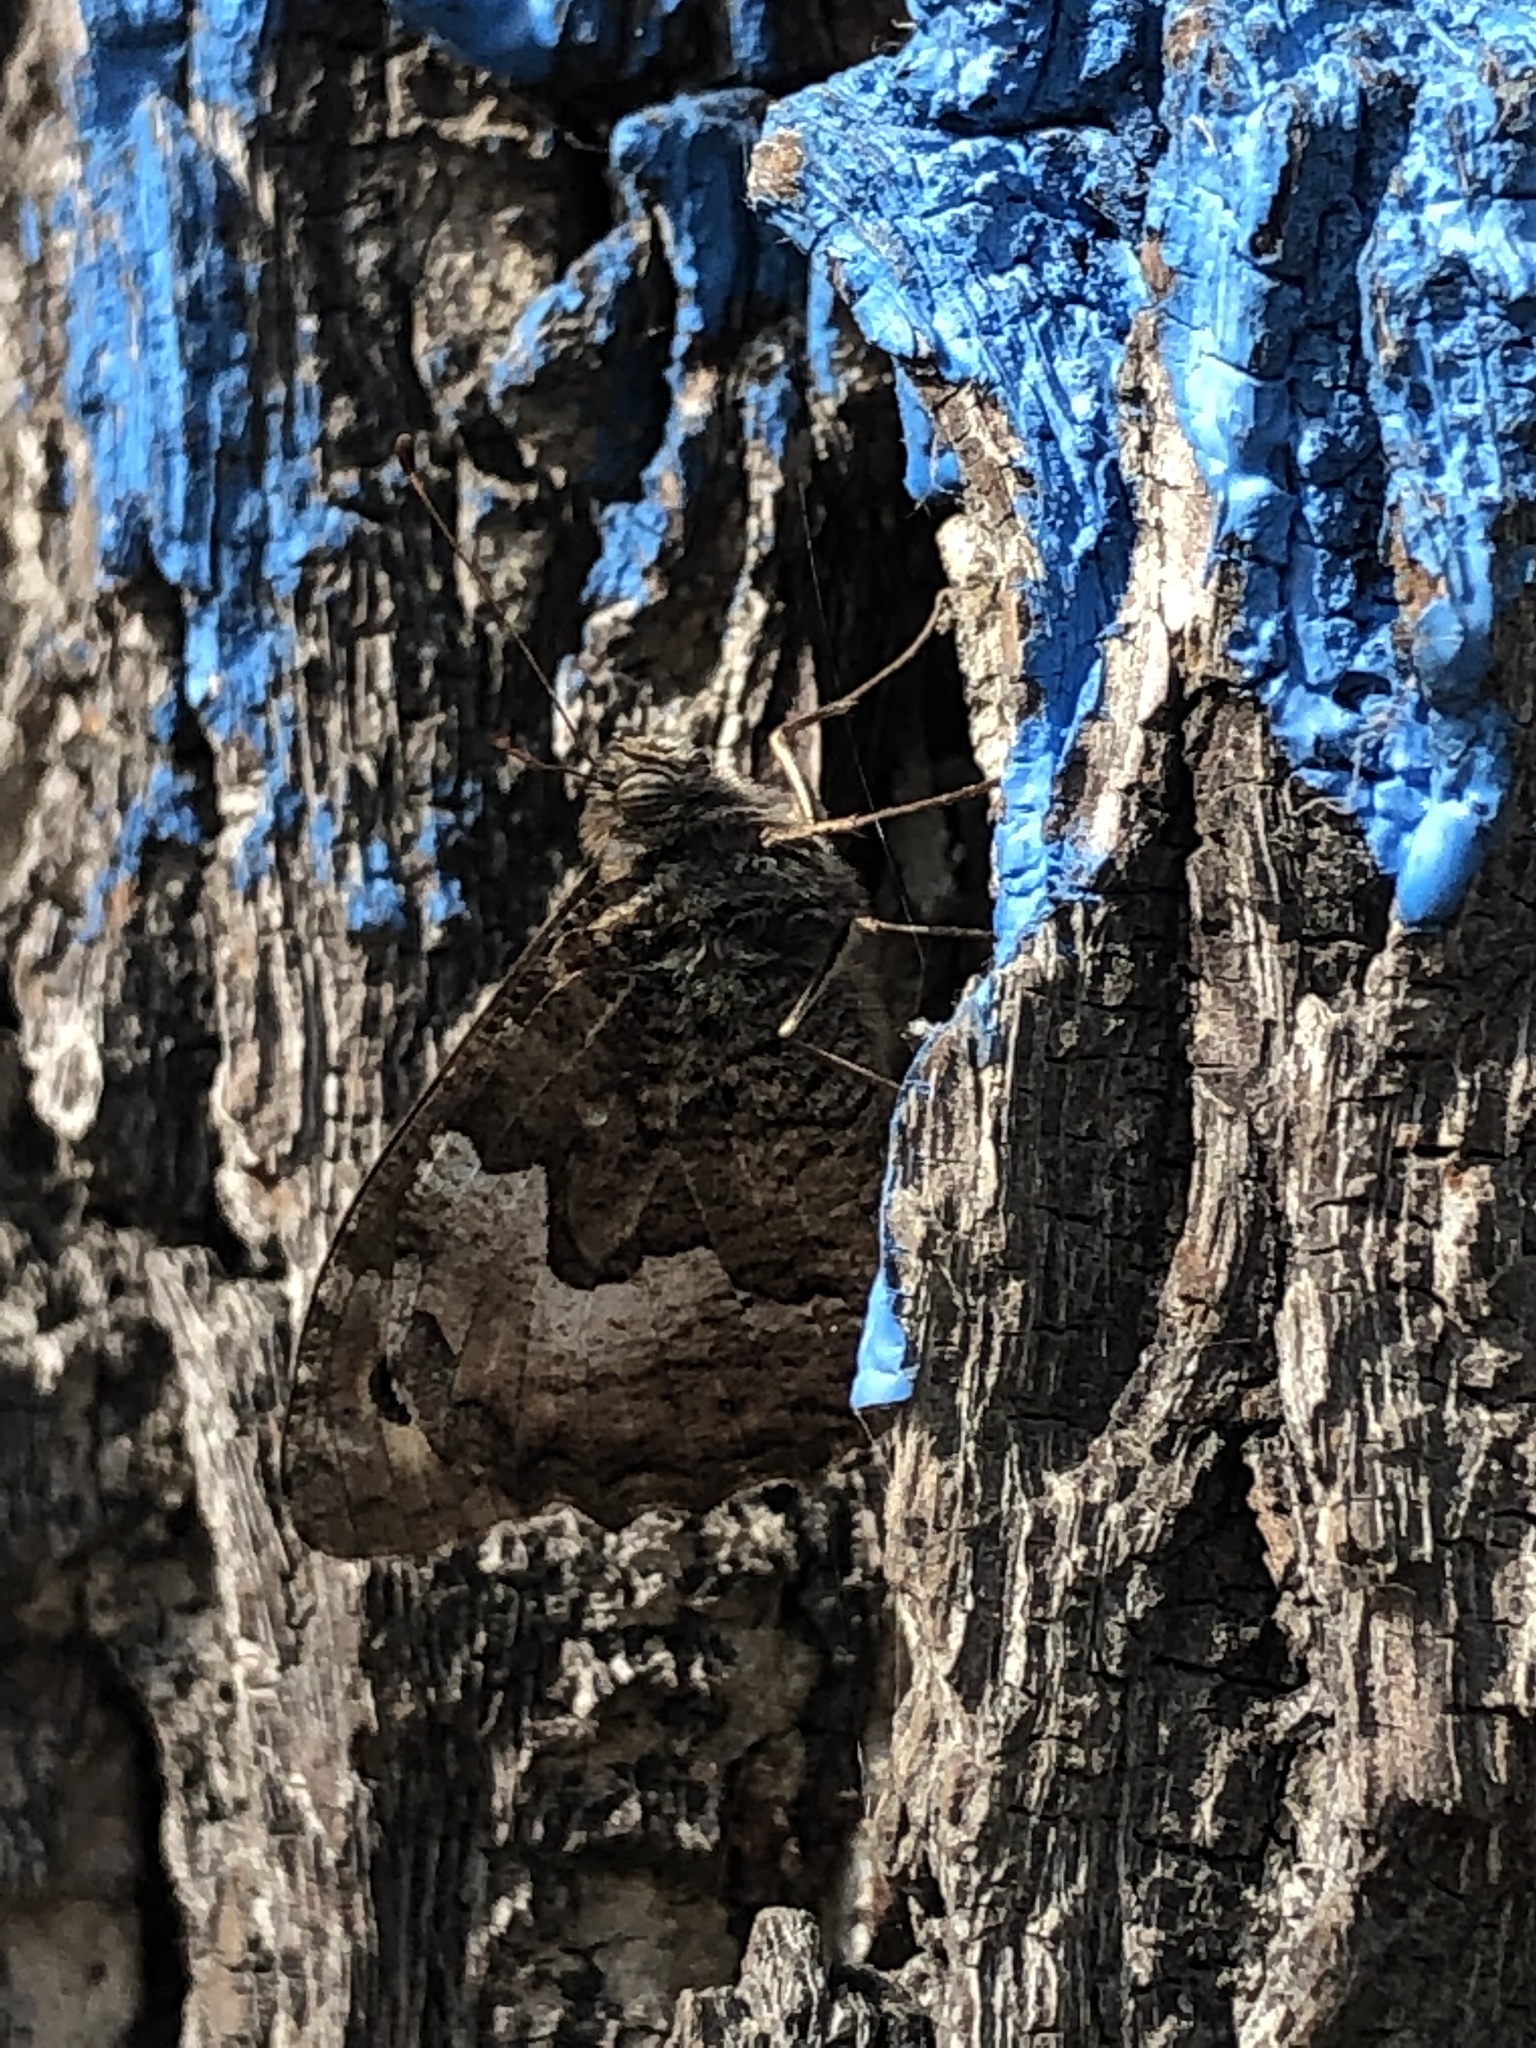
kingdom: Animalia
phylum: Arthropoda
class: Insecta
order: Lepidoptera
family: Nymphalidae
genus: Hipparchia
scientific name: Hipparchia semele
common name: Grayling
